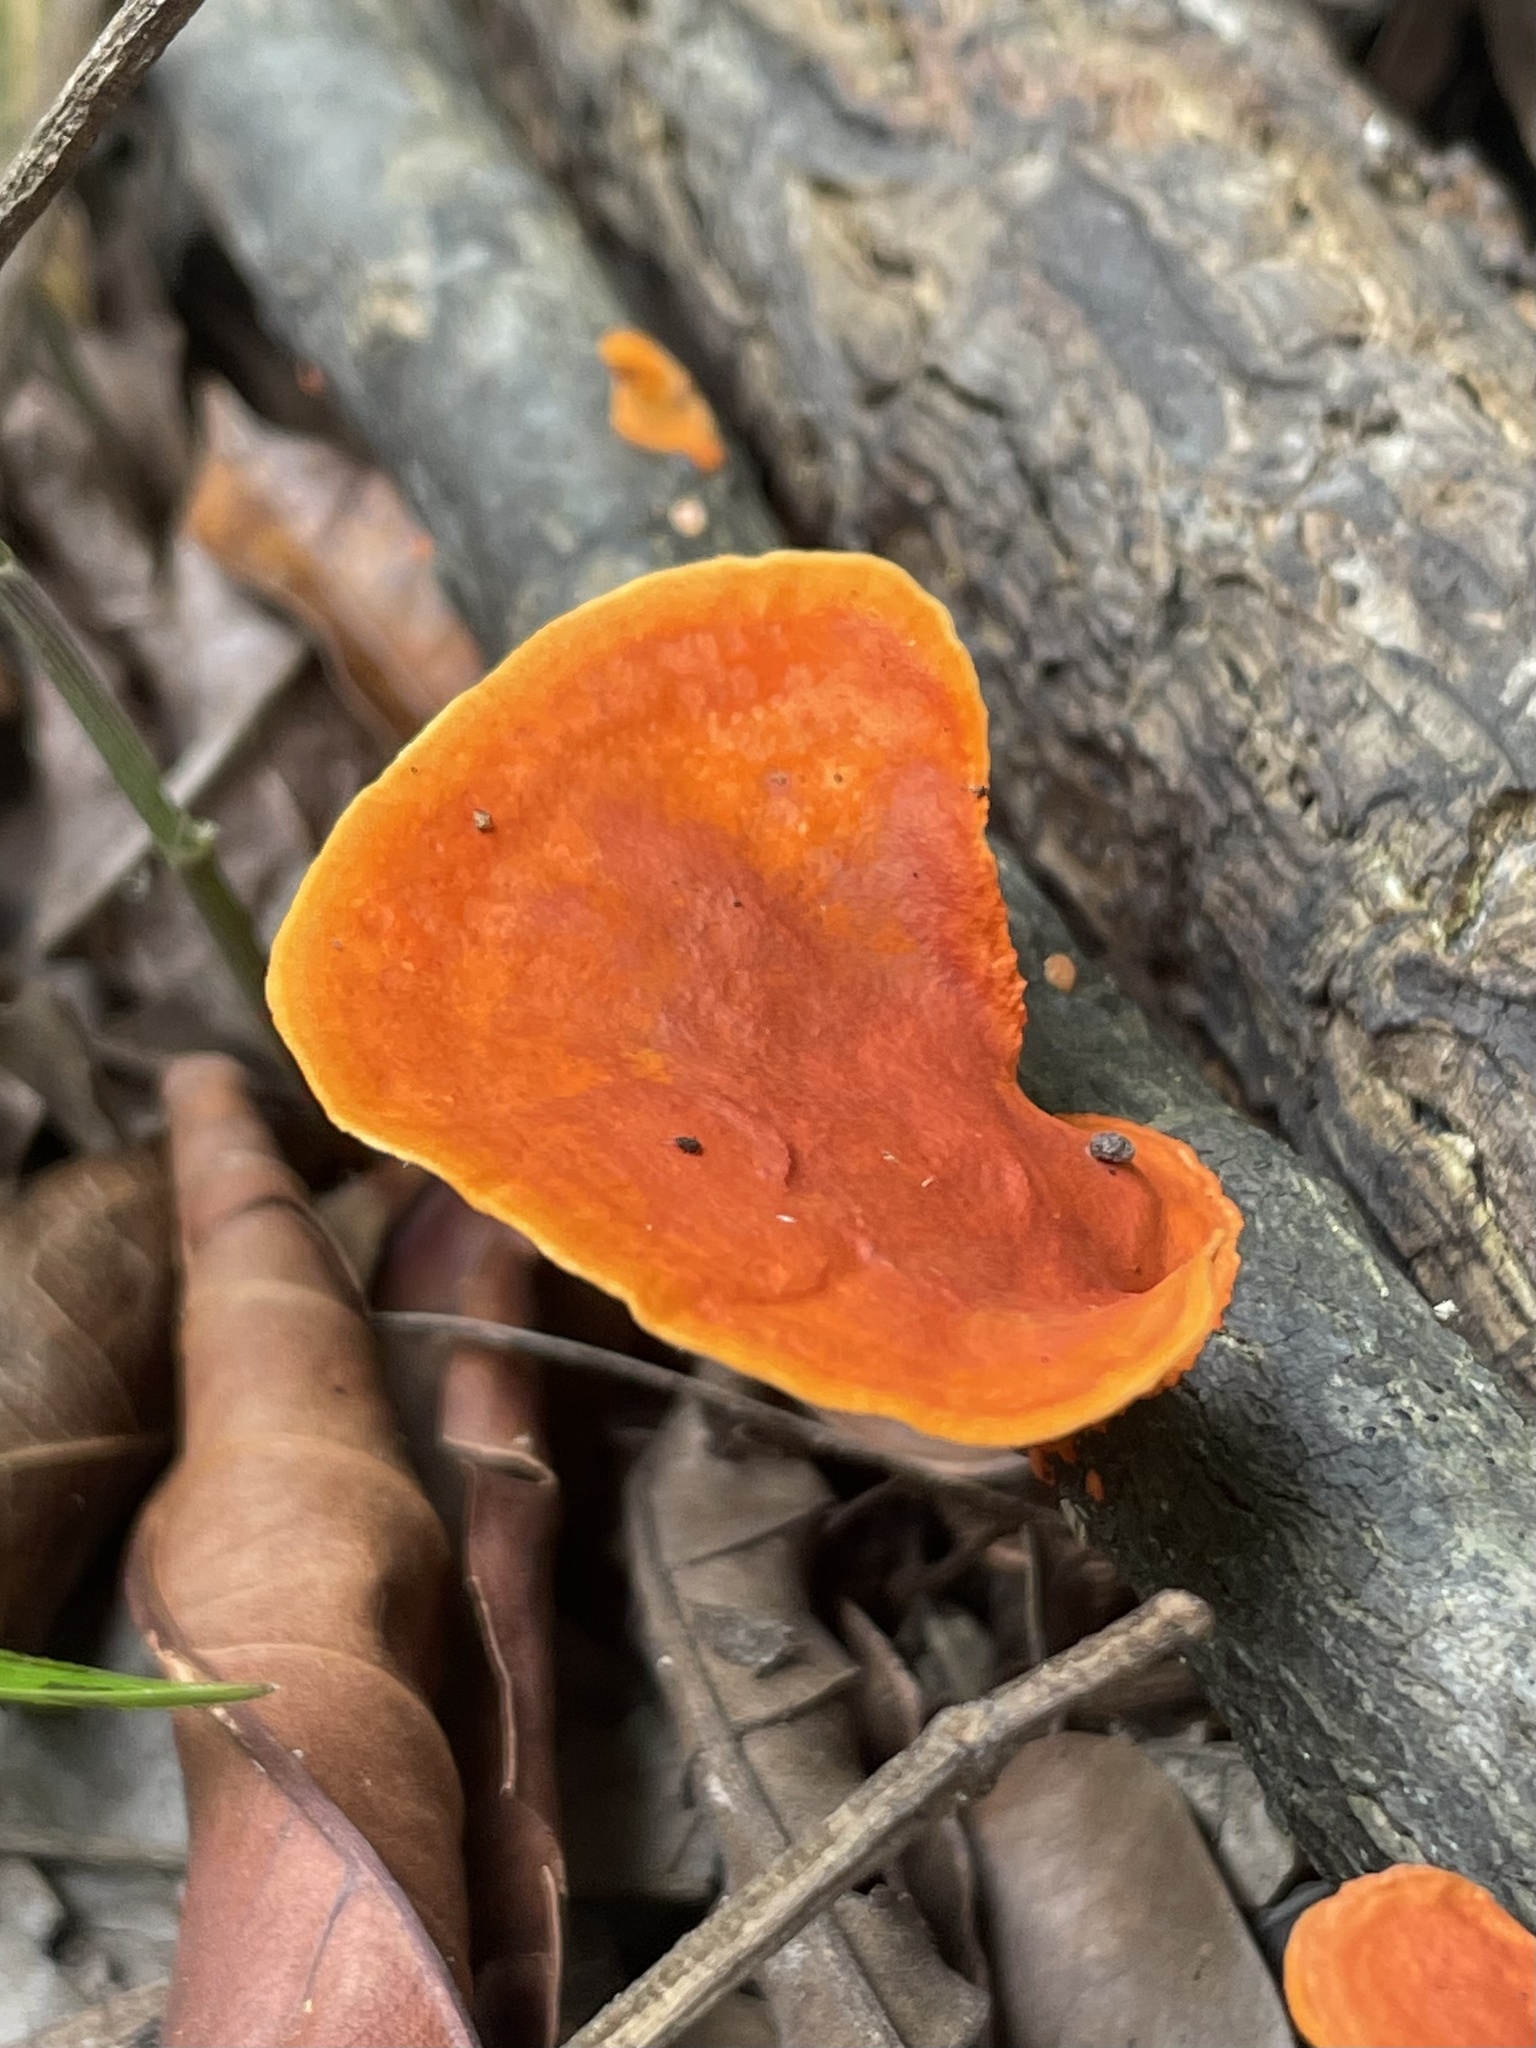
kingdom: Fungi
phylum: Basidiomycota
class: Agaricomycetes
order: Polyporales
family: Polyporaceae
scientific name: Polyporaceae
